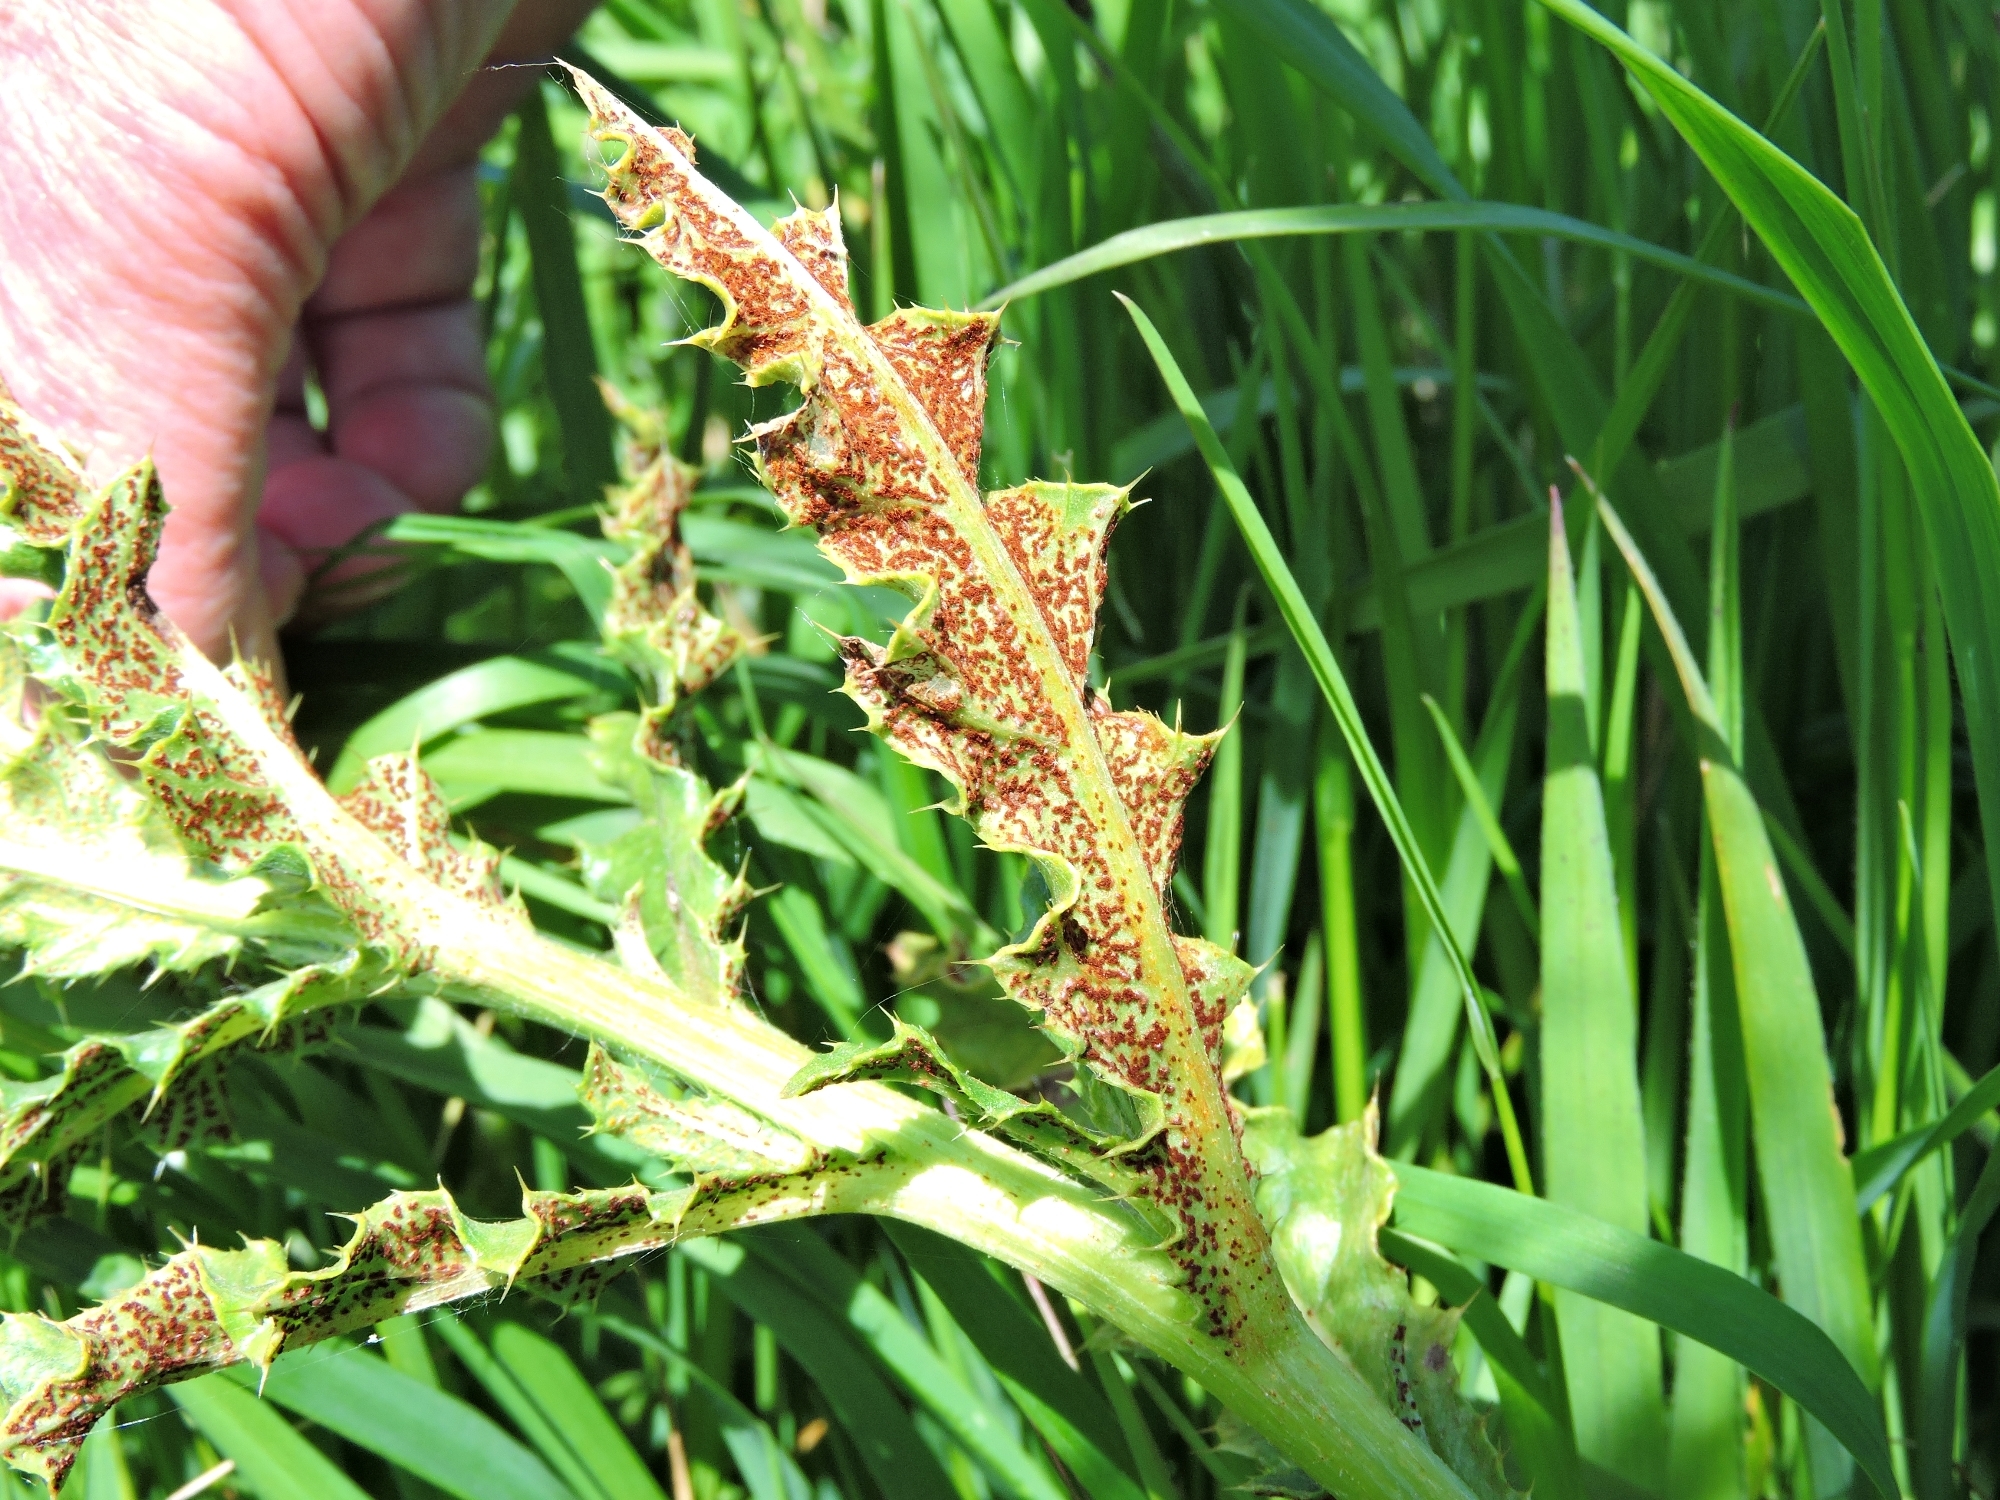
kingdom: Fungi
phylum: Basidiomycota
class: Pucciniomycetes
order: Pucciniales
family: Pucciniaceae
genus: Puccinia
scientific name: Puccinia suaveolens
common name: Thistle rust
